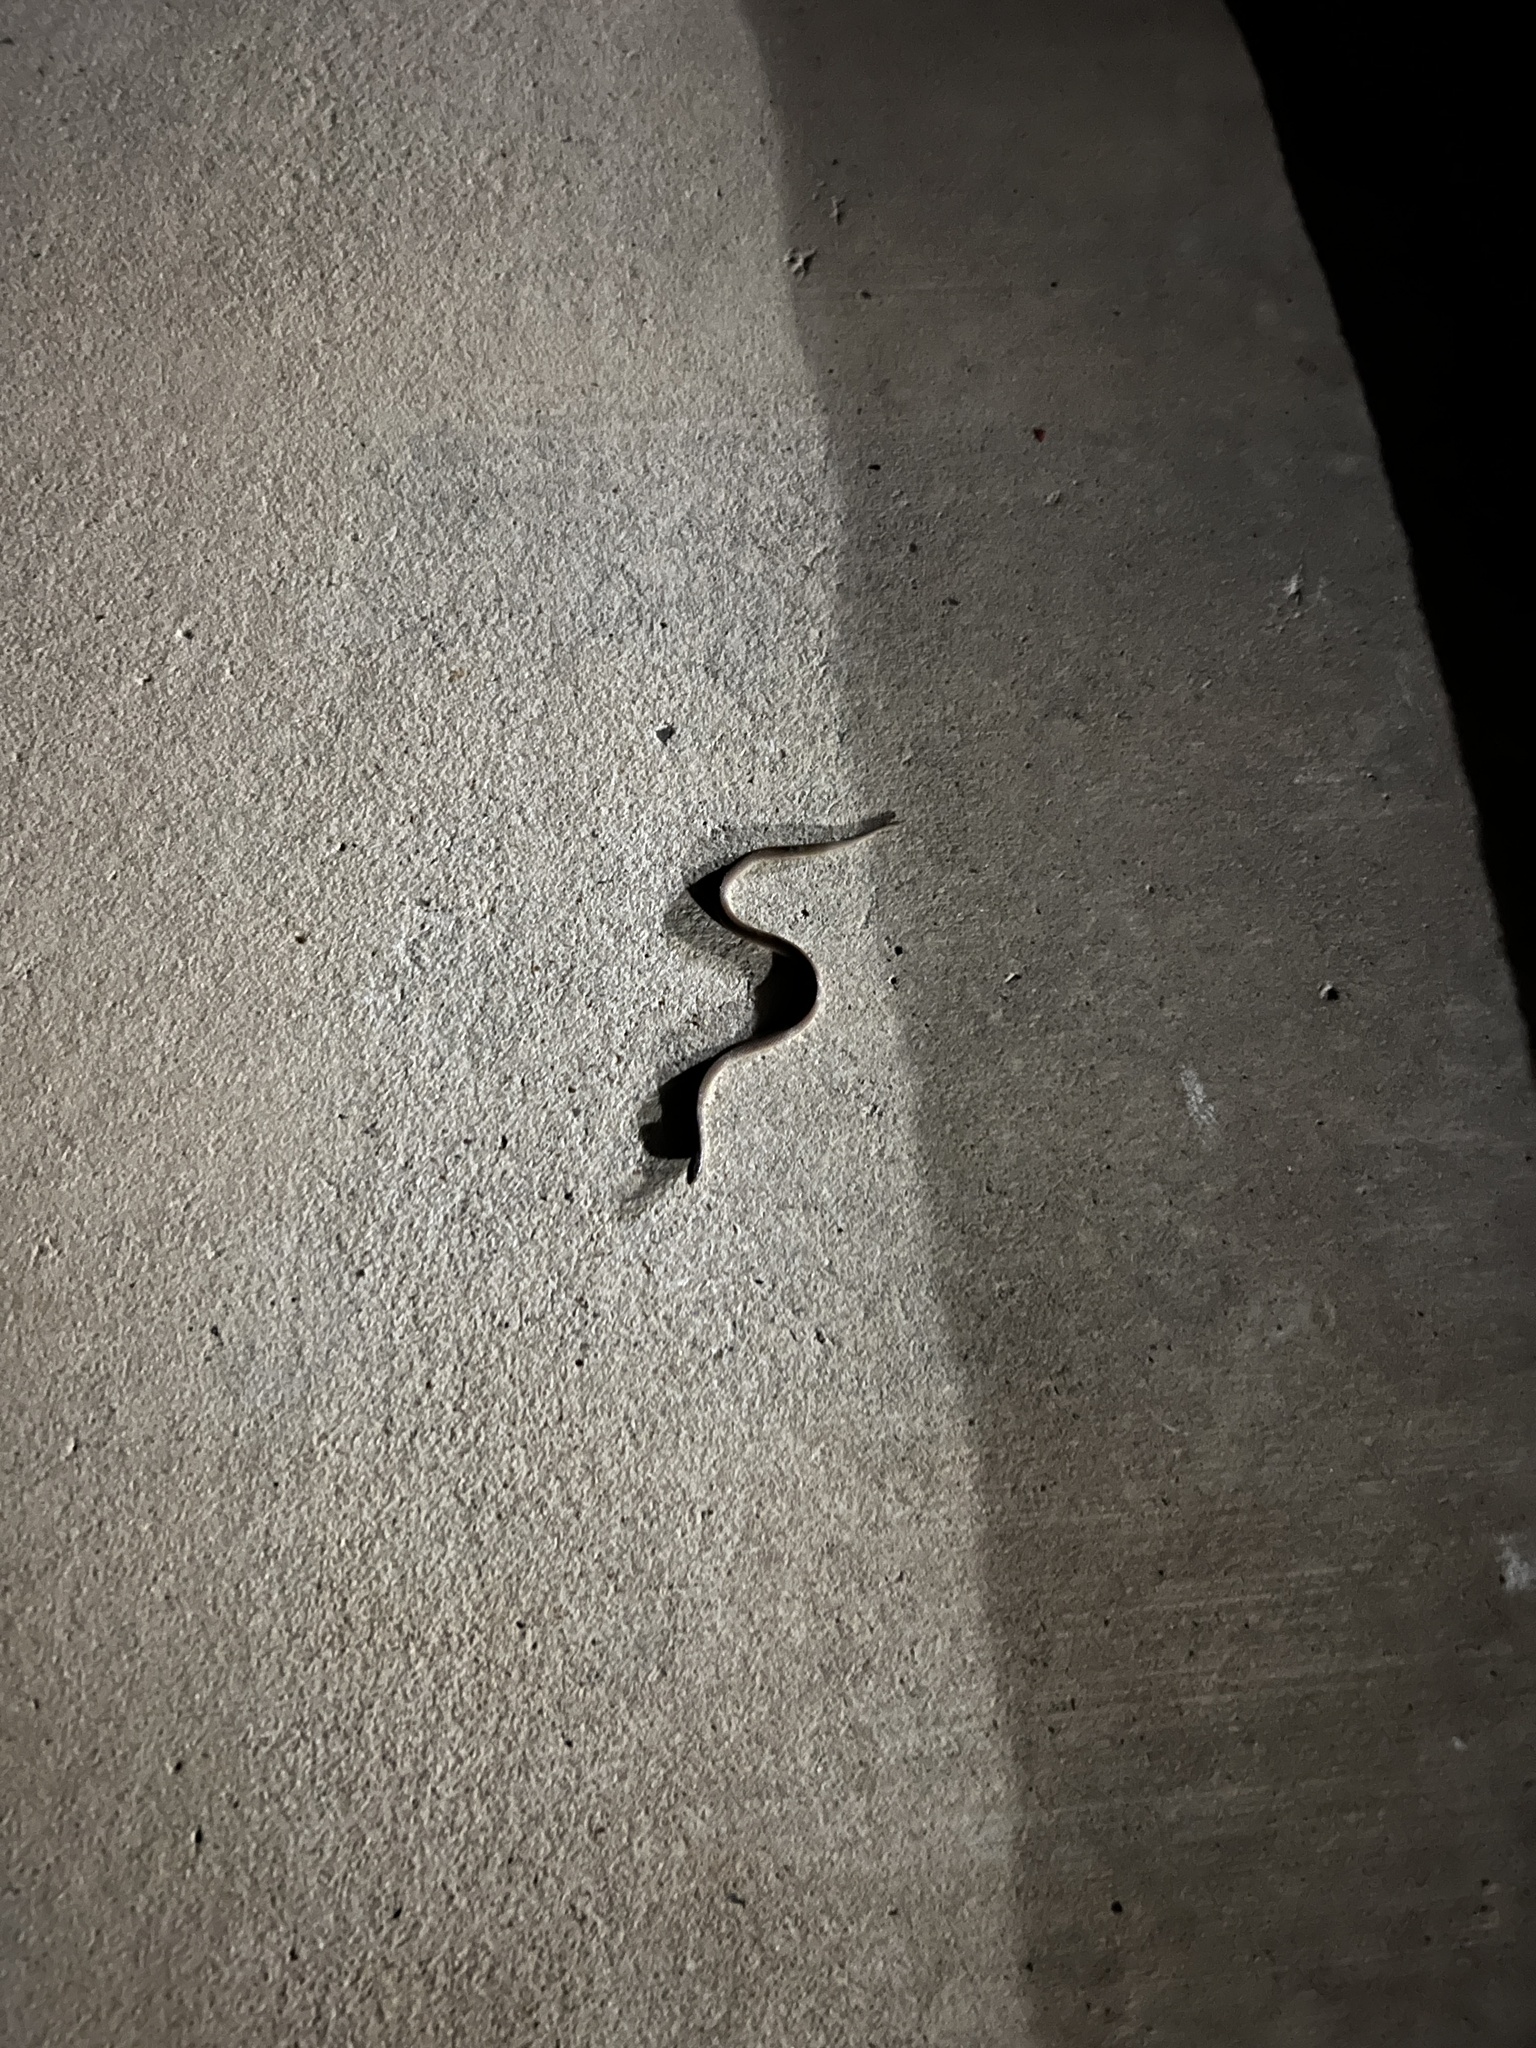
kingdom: Animalia
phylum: Chordata
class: Squamata
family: Colubridae
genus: Haldea
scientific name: Haldea striatula
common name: Rough earth snake
